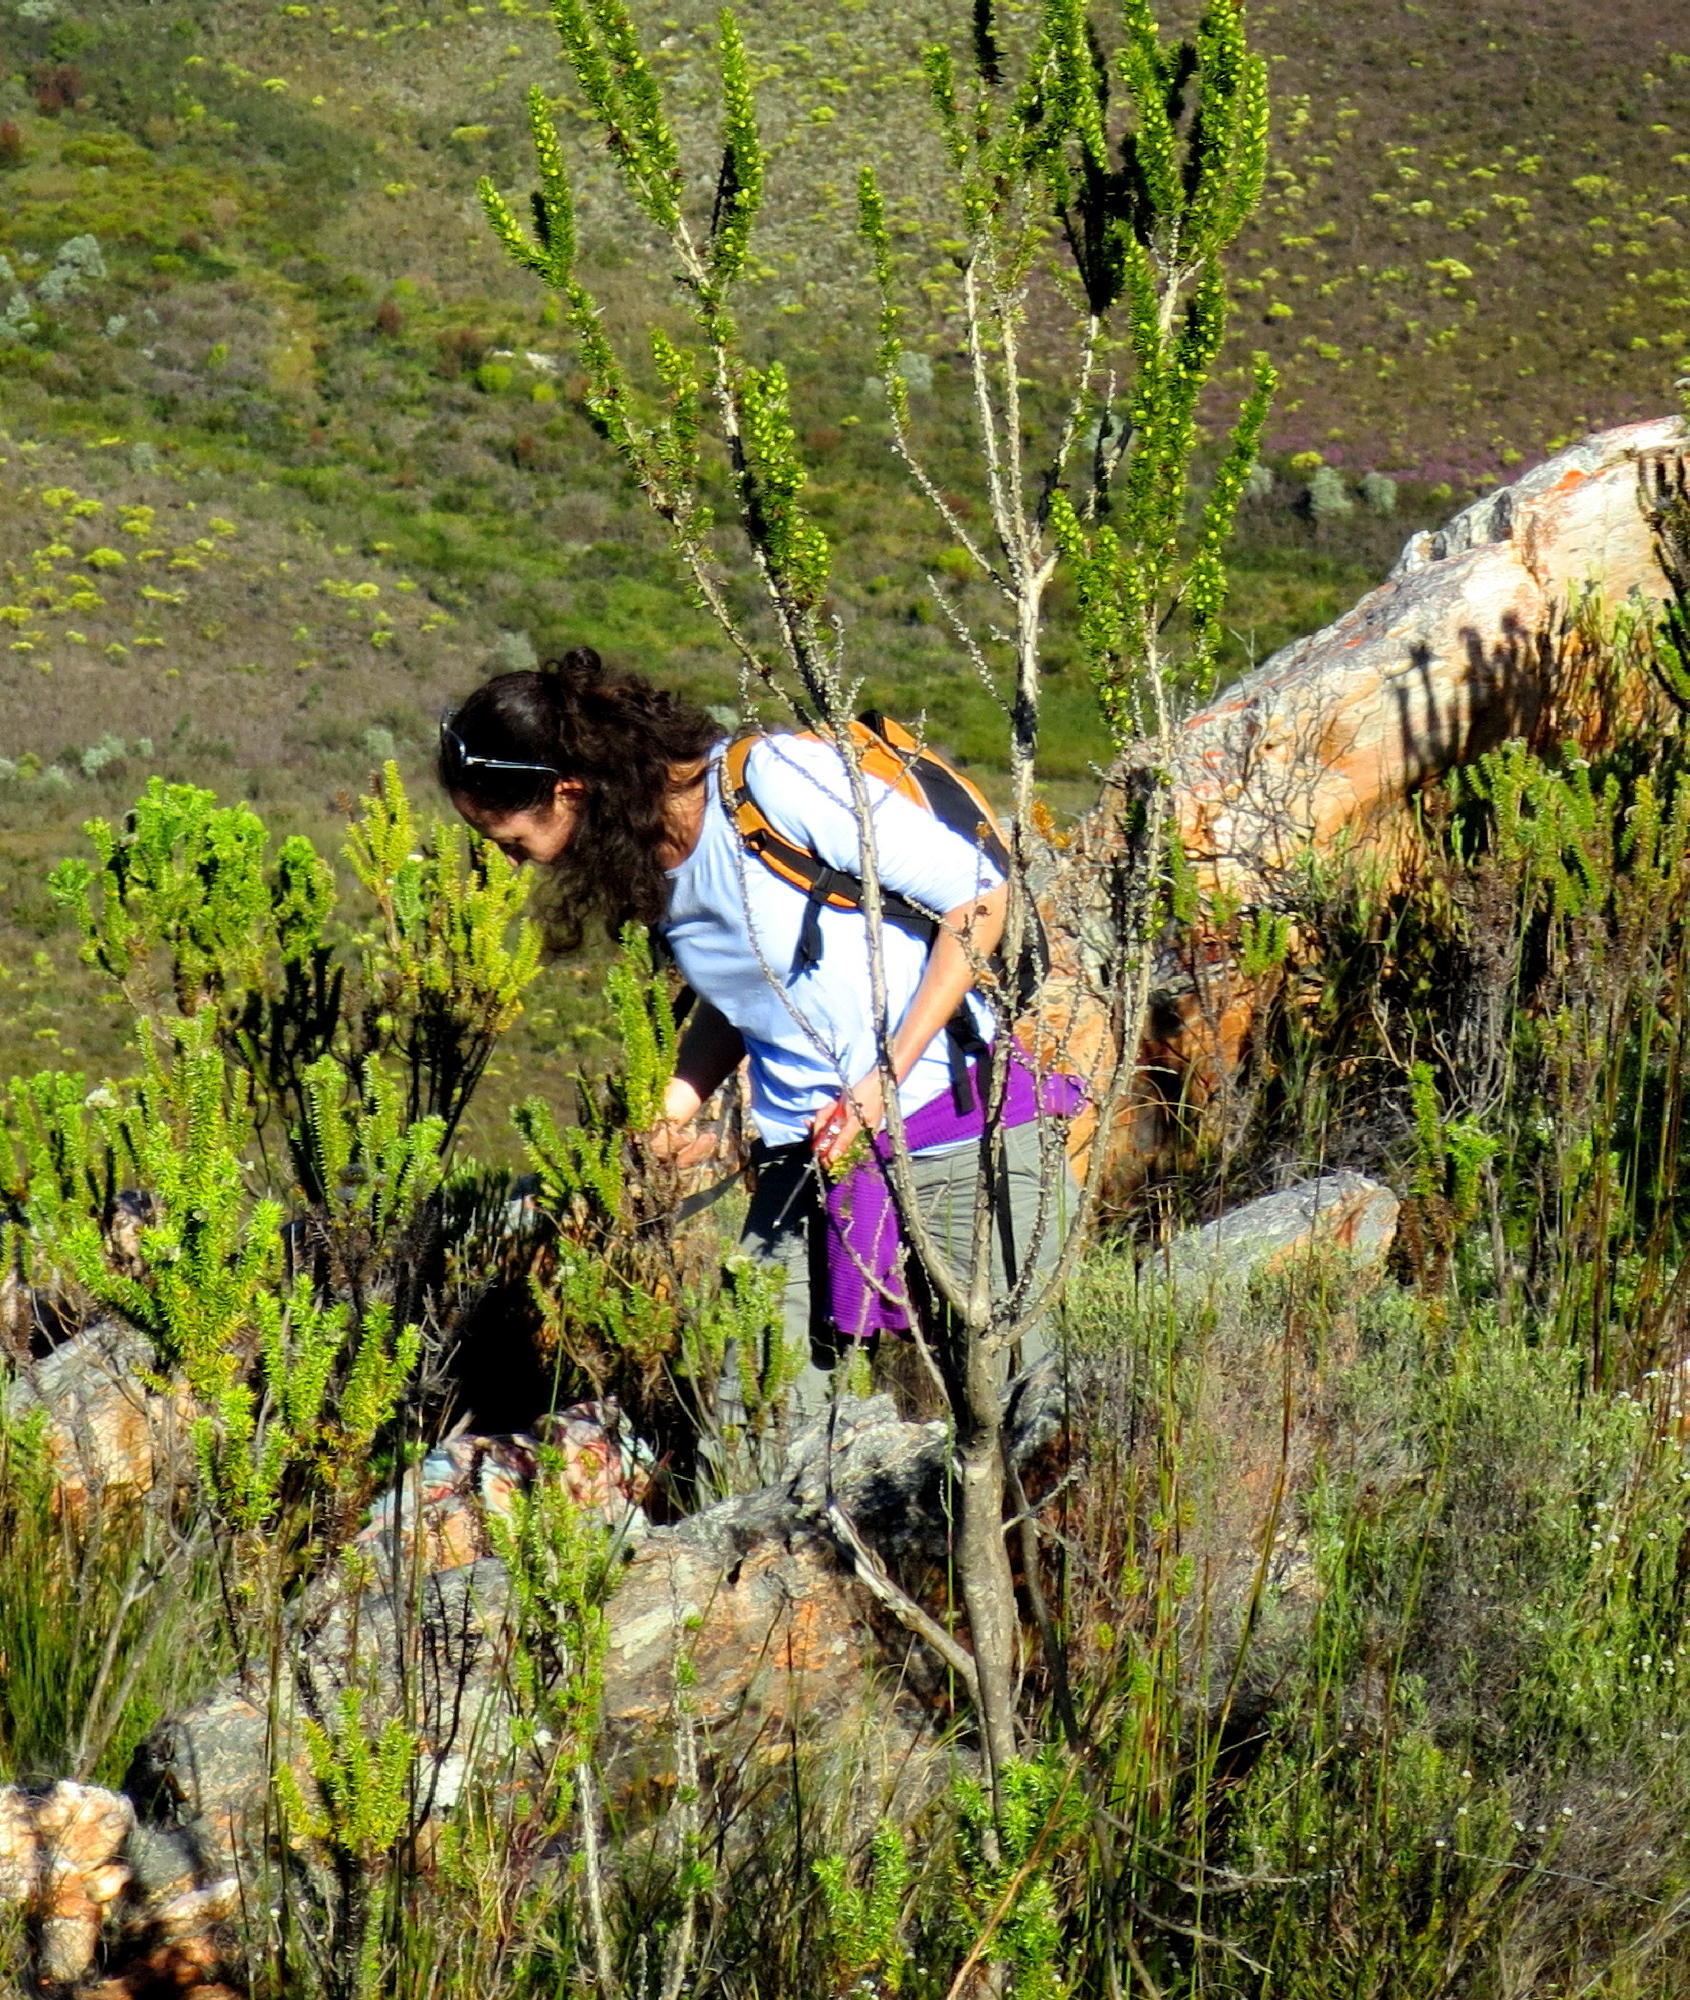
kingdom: Plantae
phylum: Tracheophyta
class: Magnoliopsida
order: Fabales
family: Fabaceae
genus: Aspalathus
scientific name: Aspalathus sceptrumaureum
